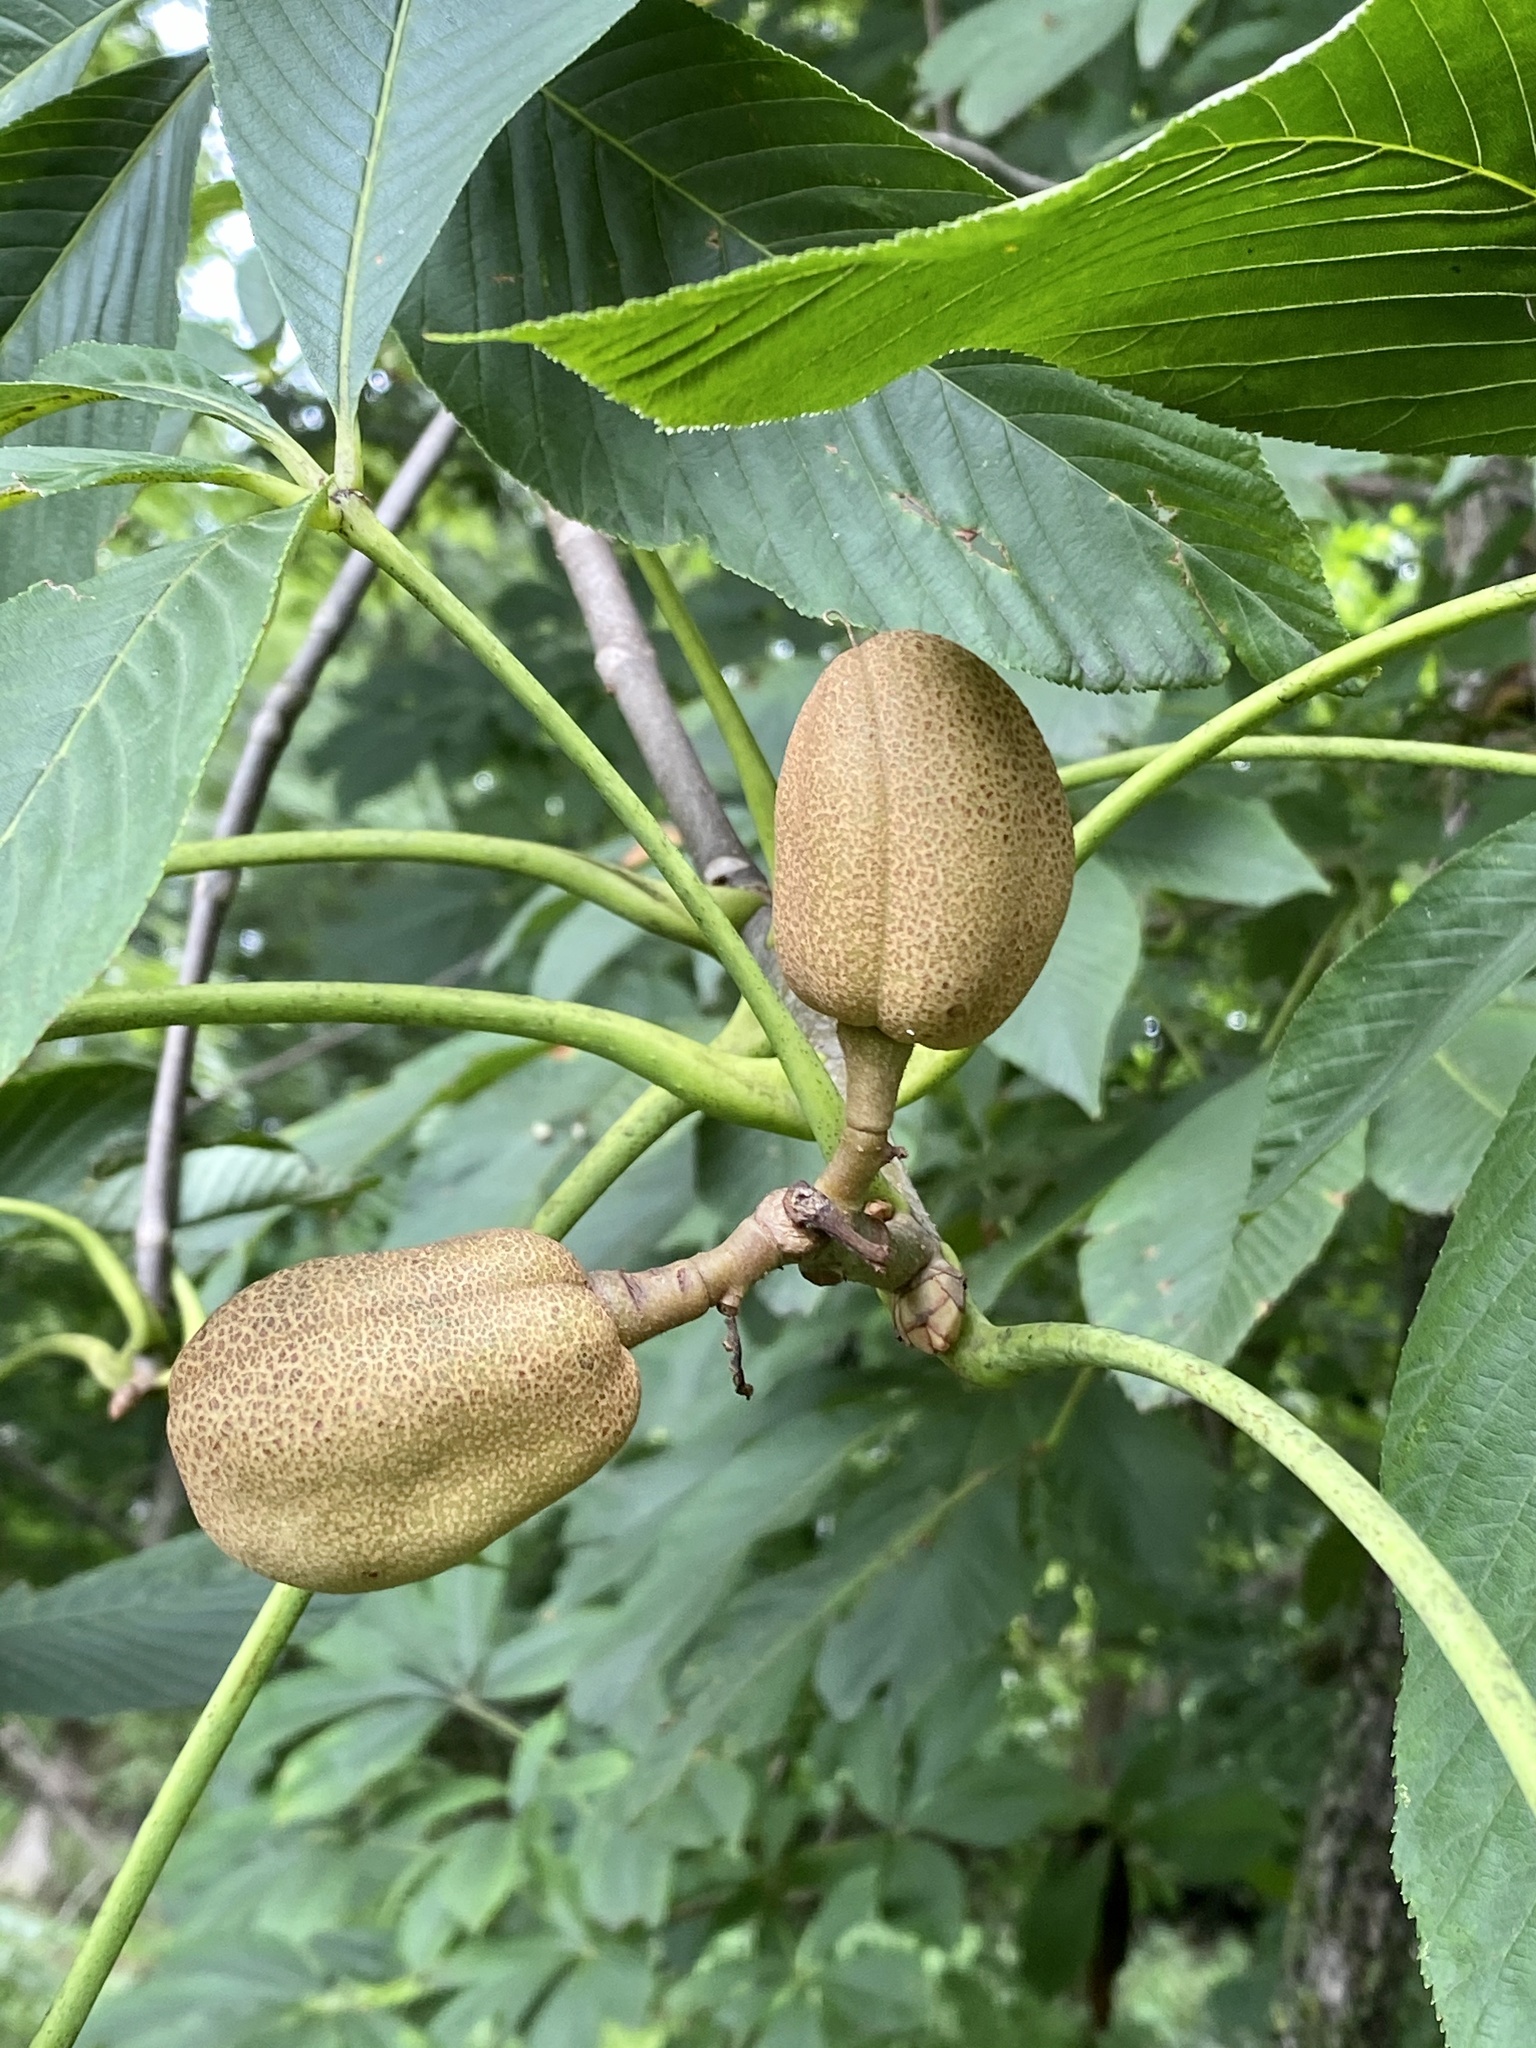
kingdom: Plantae
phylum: Tracheophyta
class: Magnoliopsida
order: Sapindales
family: Sapindaceae
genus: Aesculus
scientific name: Aesculus flava
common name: Yellow buckeye
